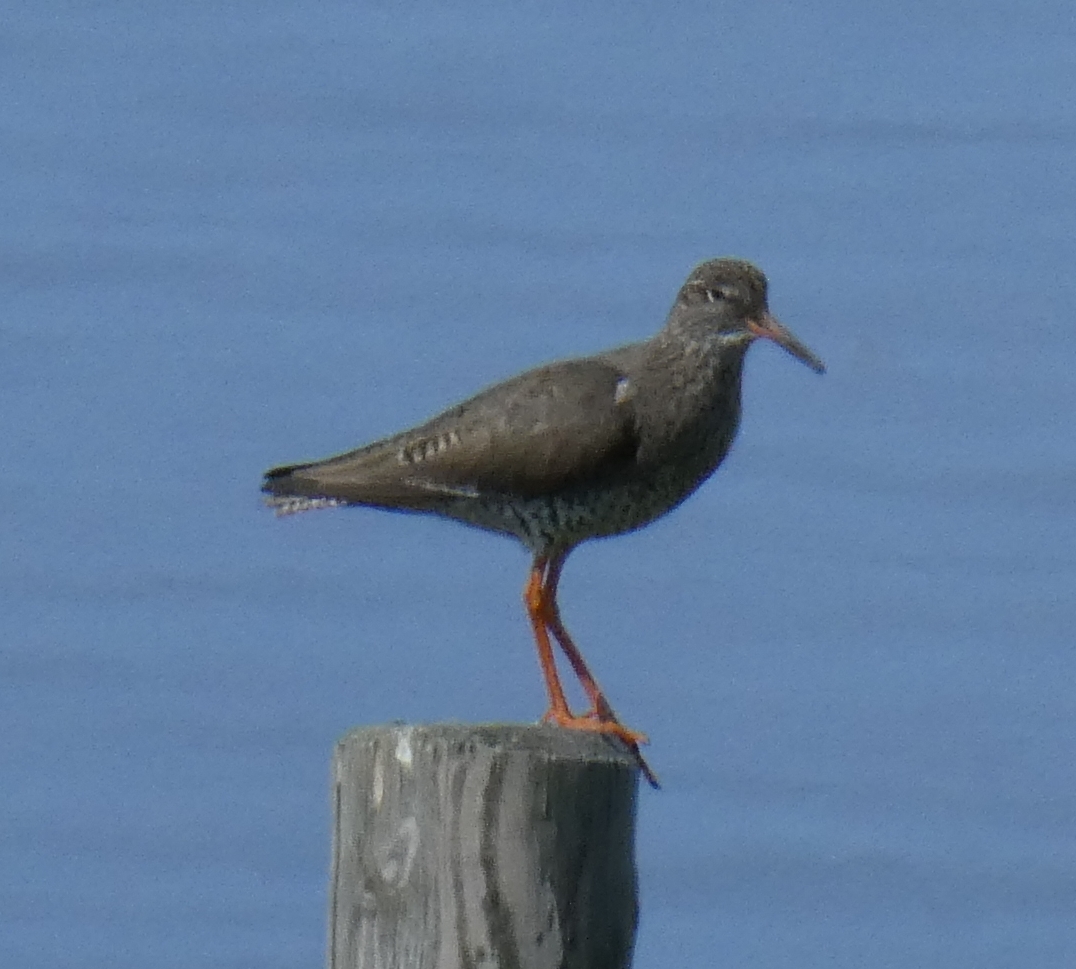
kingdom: Animalia
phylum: Chordata
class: Aves
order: Charadriiformes
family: Scolopacidae
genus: Tringa
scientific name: Tringa totanus
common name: Common redshank
